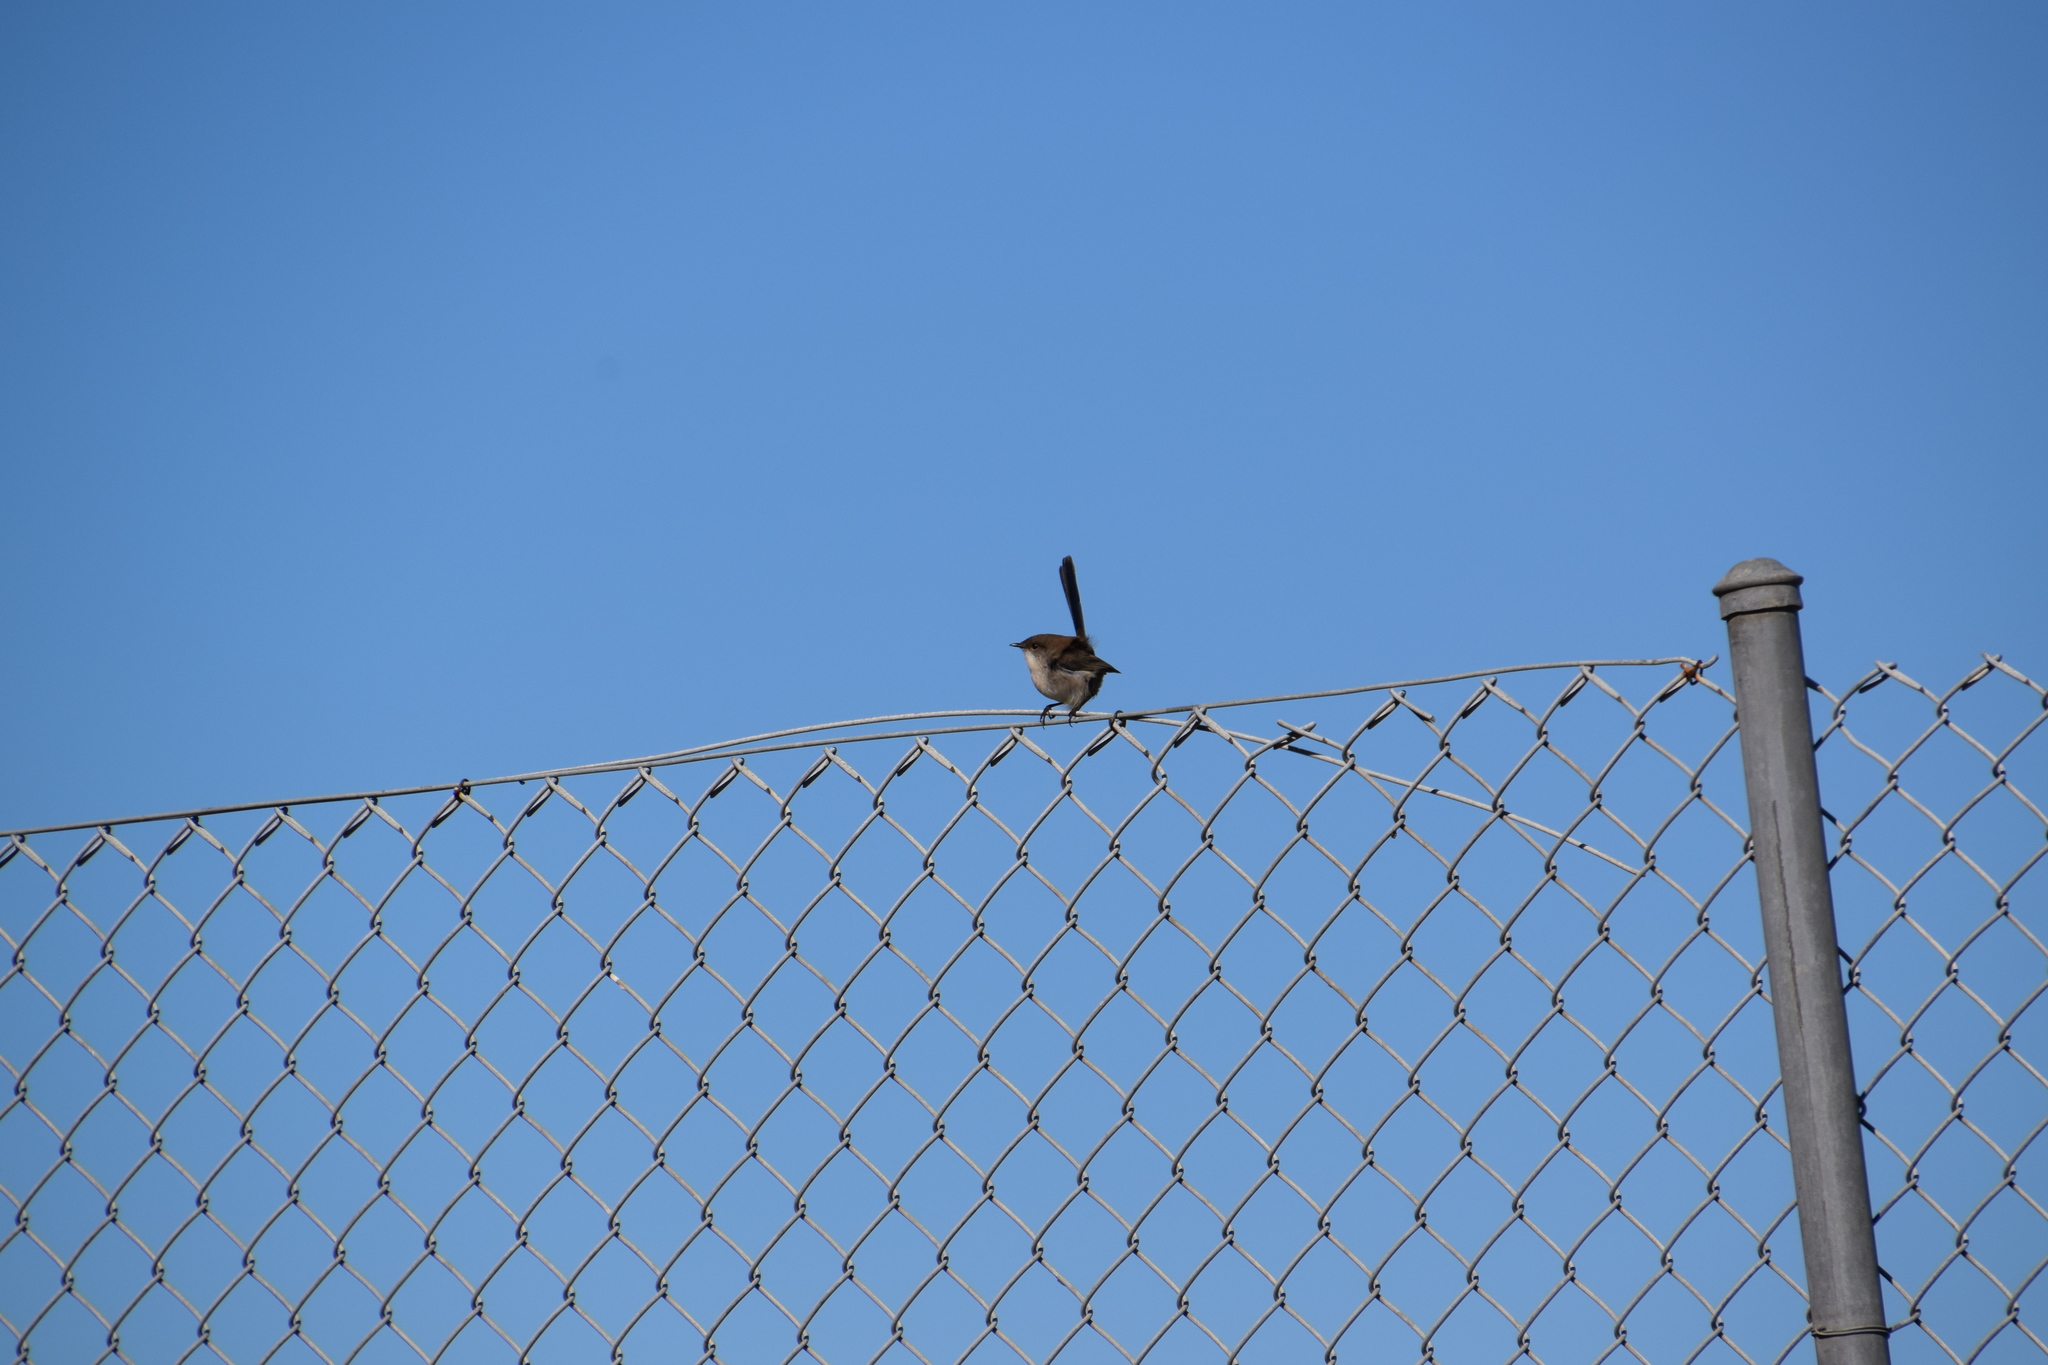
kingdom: Animalia
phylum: Chordata
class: Aves
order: Passeriformes
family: Maluridae
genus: Malurus
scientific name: Malurus cyaneus
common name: Superb fairywren
